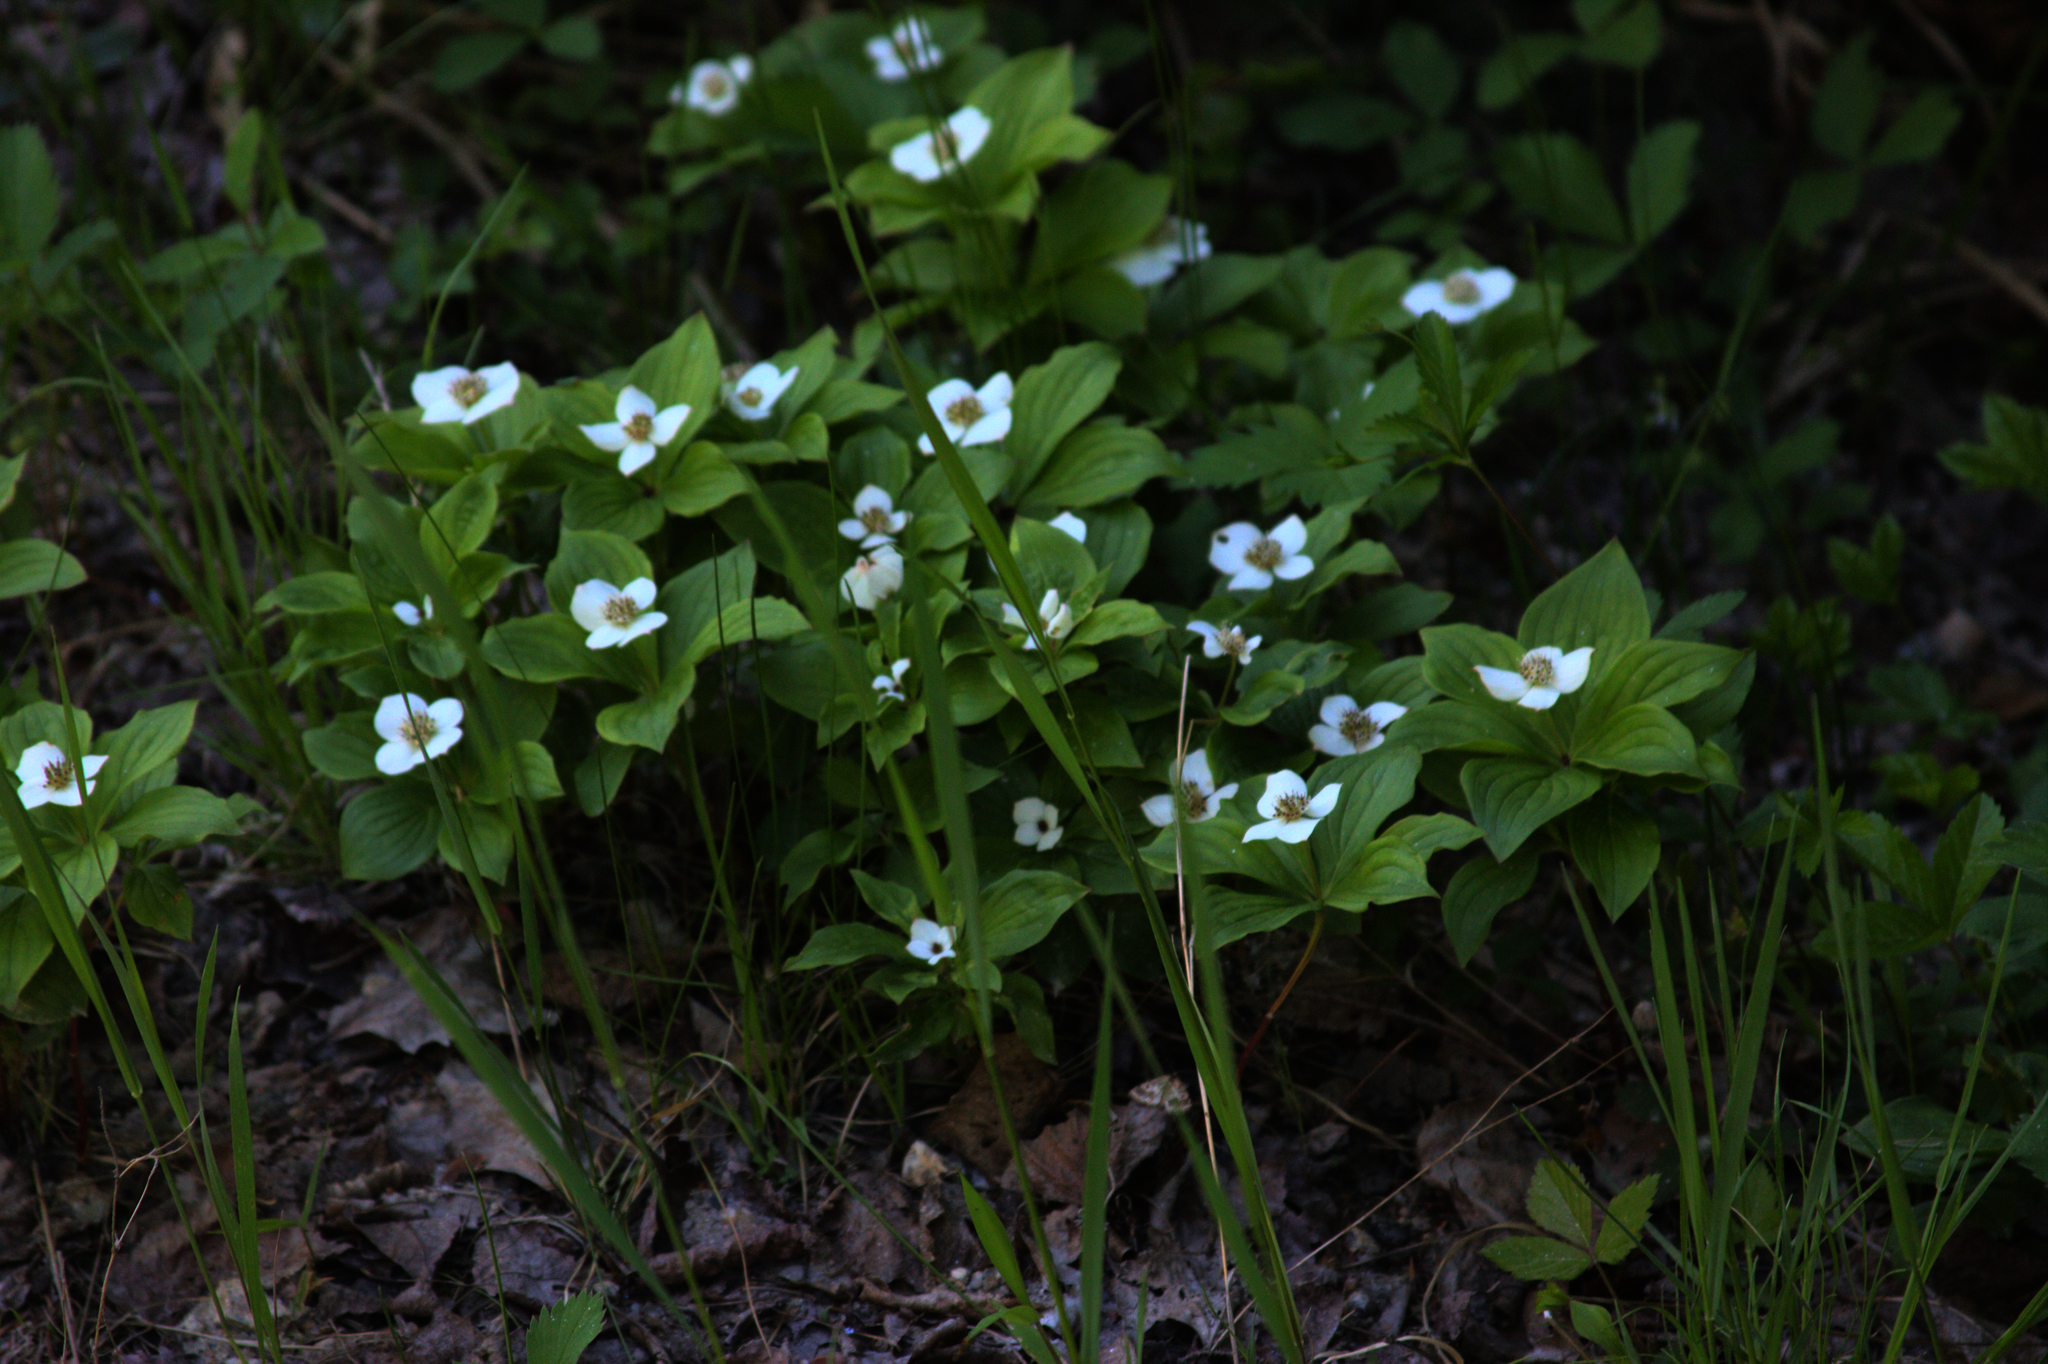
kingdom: Plantae
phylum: Tracheophyta
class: Magnoliopsida
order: Cornales
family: Cornaceae
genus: Cornus
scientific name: Cornus canadensis
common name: Creeping dogwood
